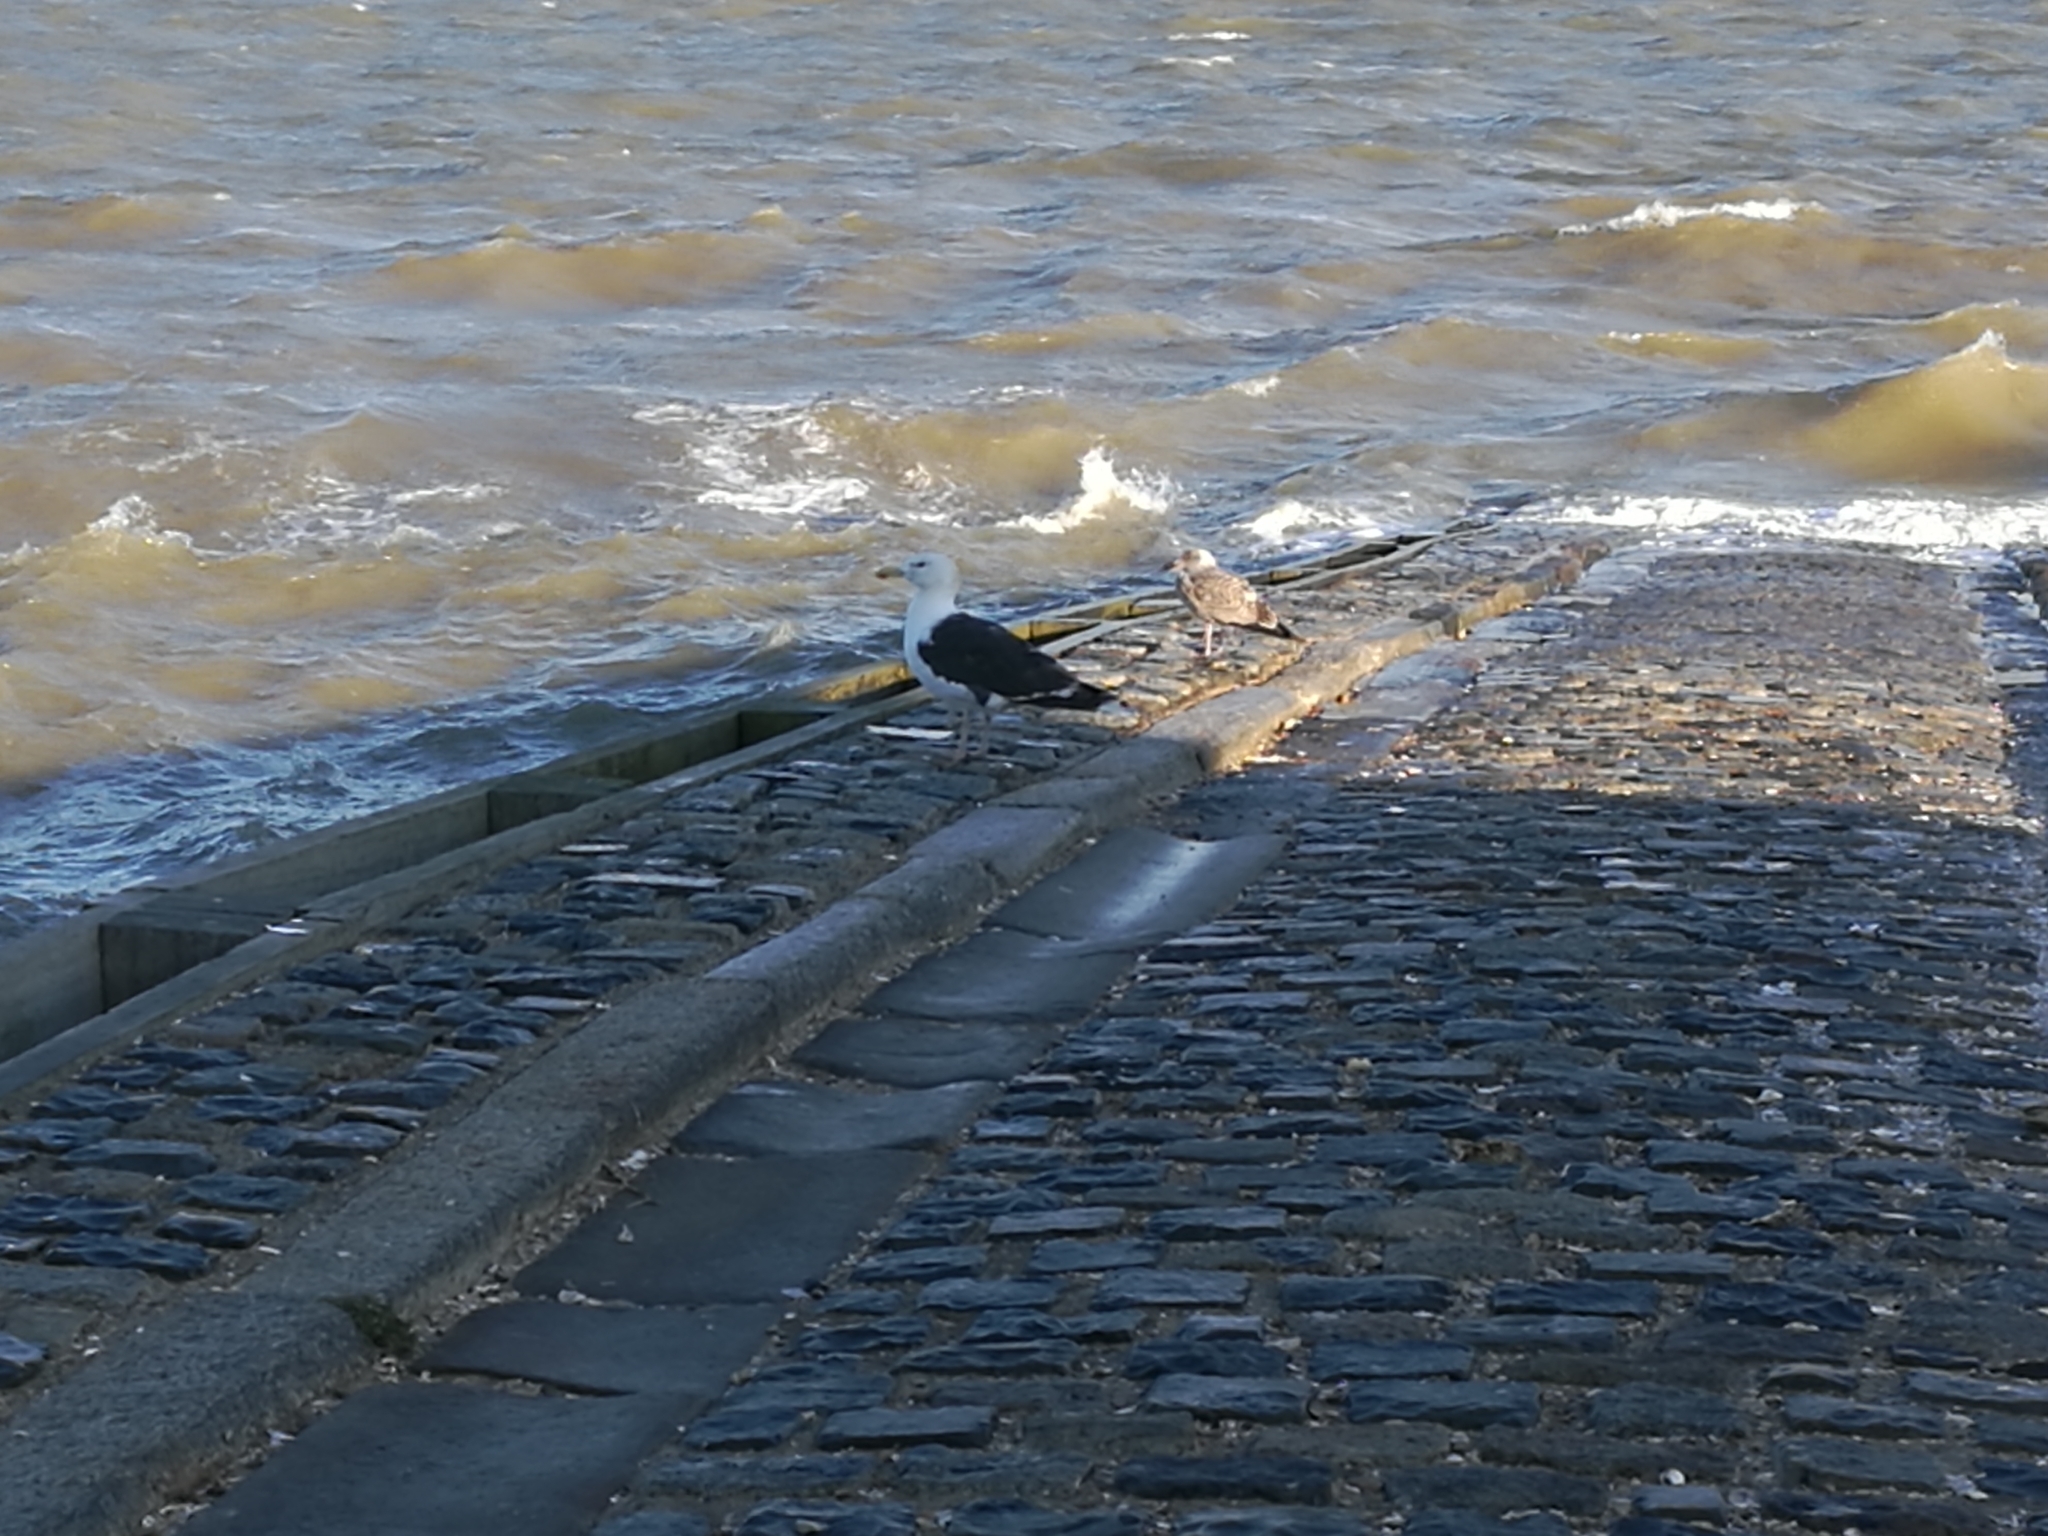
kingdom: Animalia
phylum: Chordata
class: Aves
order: Charadriiformes
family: Laridae
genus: Larus
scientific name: Larus marinus
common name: Great black-backed gull
